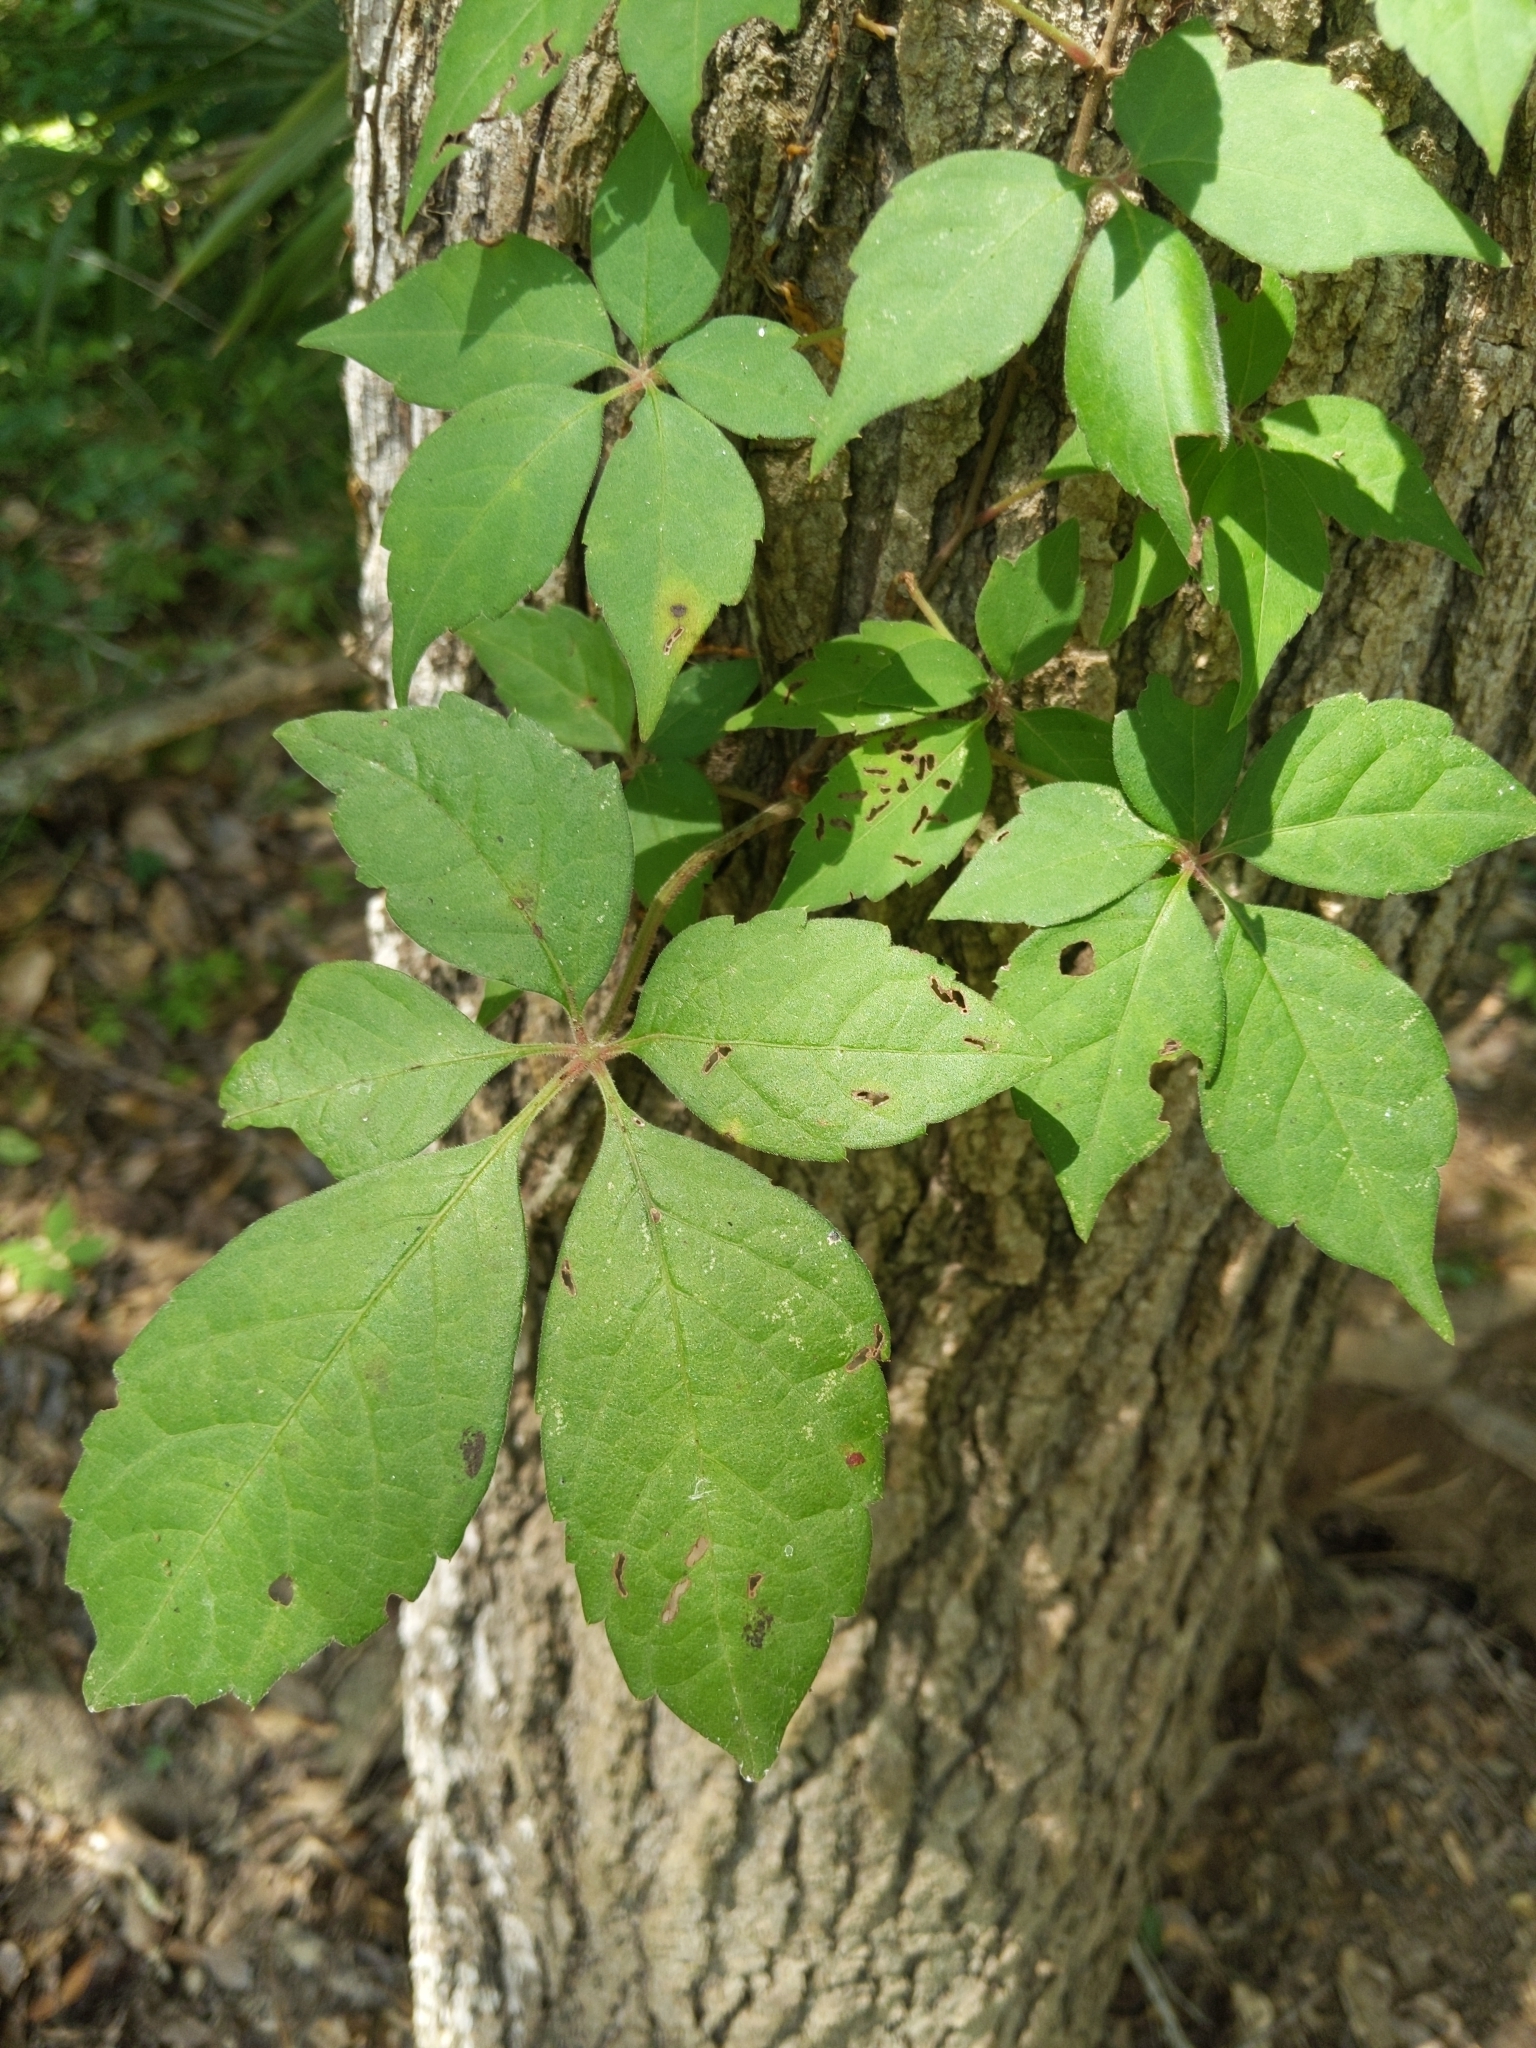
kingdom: Plantae
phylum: Tracheophyta
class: Magnoliopsida
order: Vitales
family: Vitaceae
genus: Parthenocissus
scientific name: Parthenocissus quinquefolia
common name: Virginia-creeper
